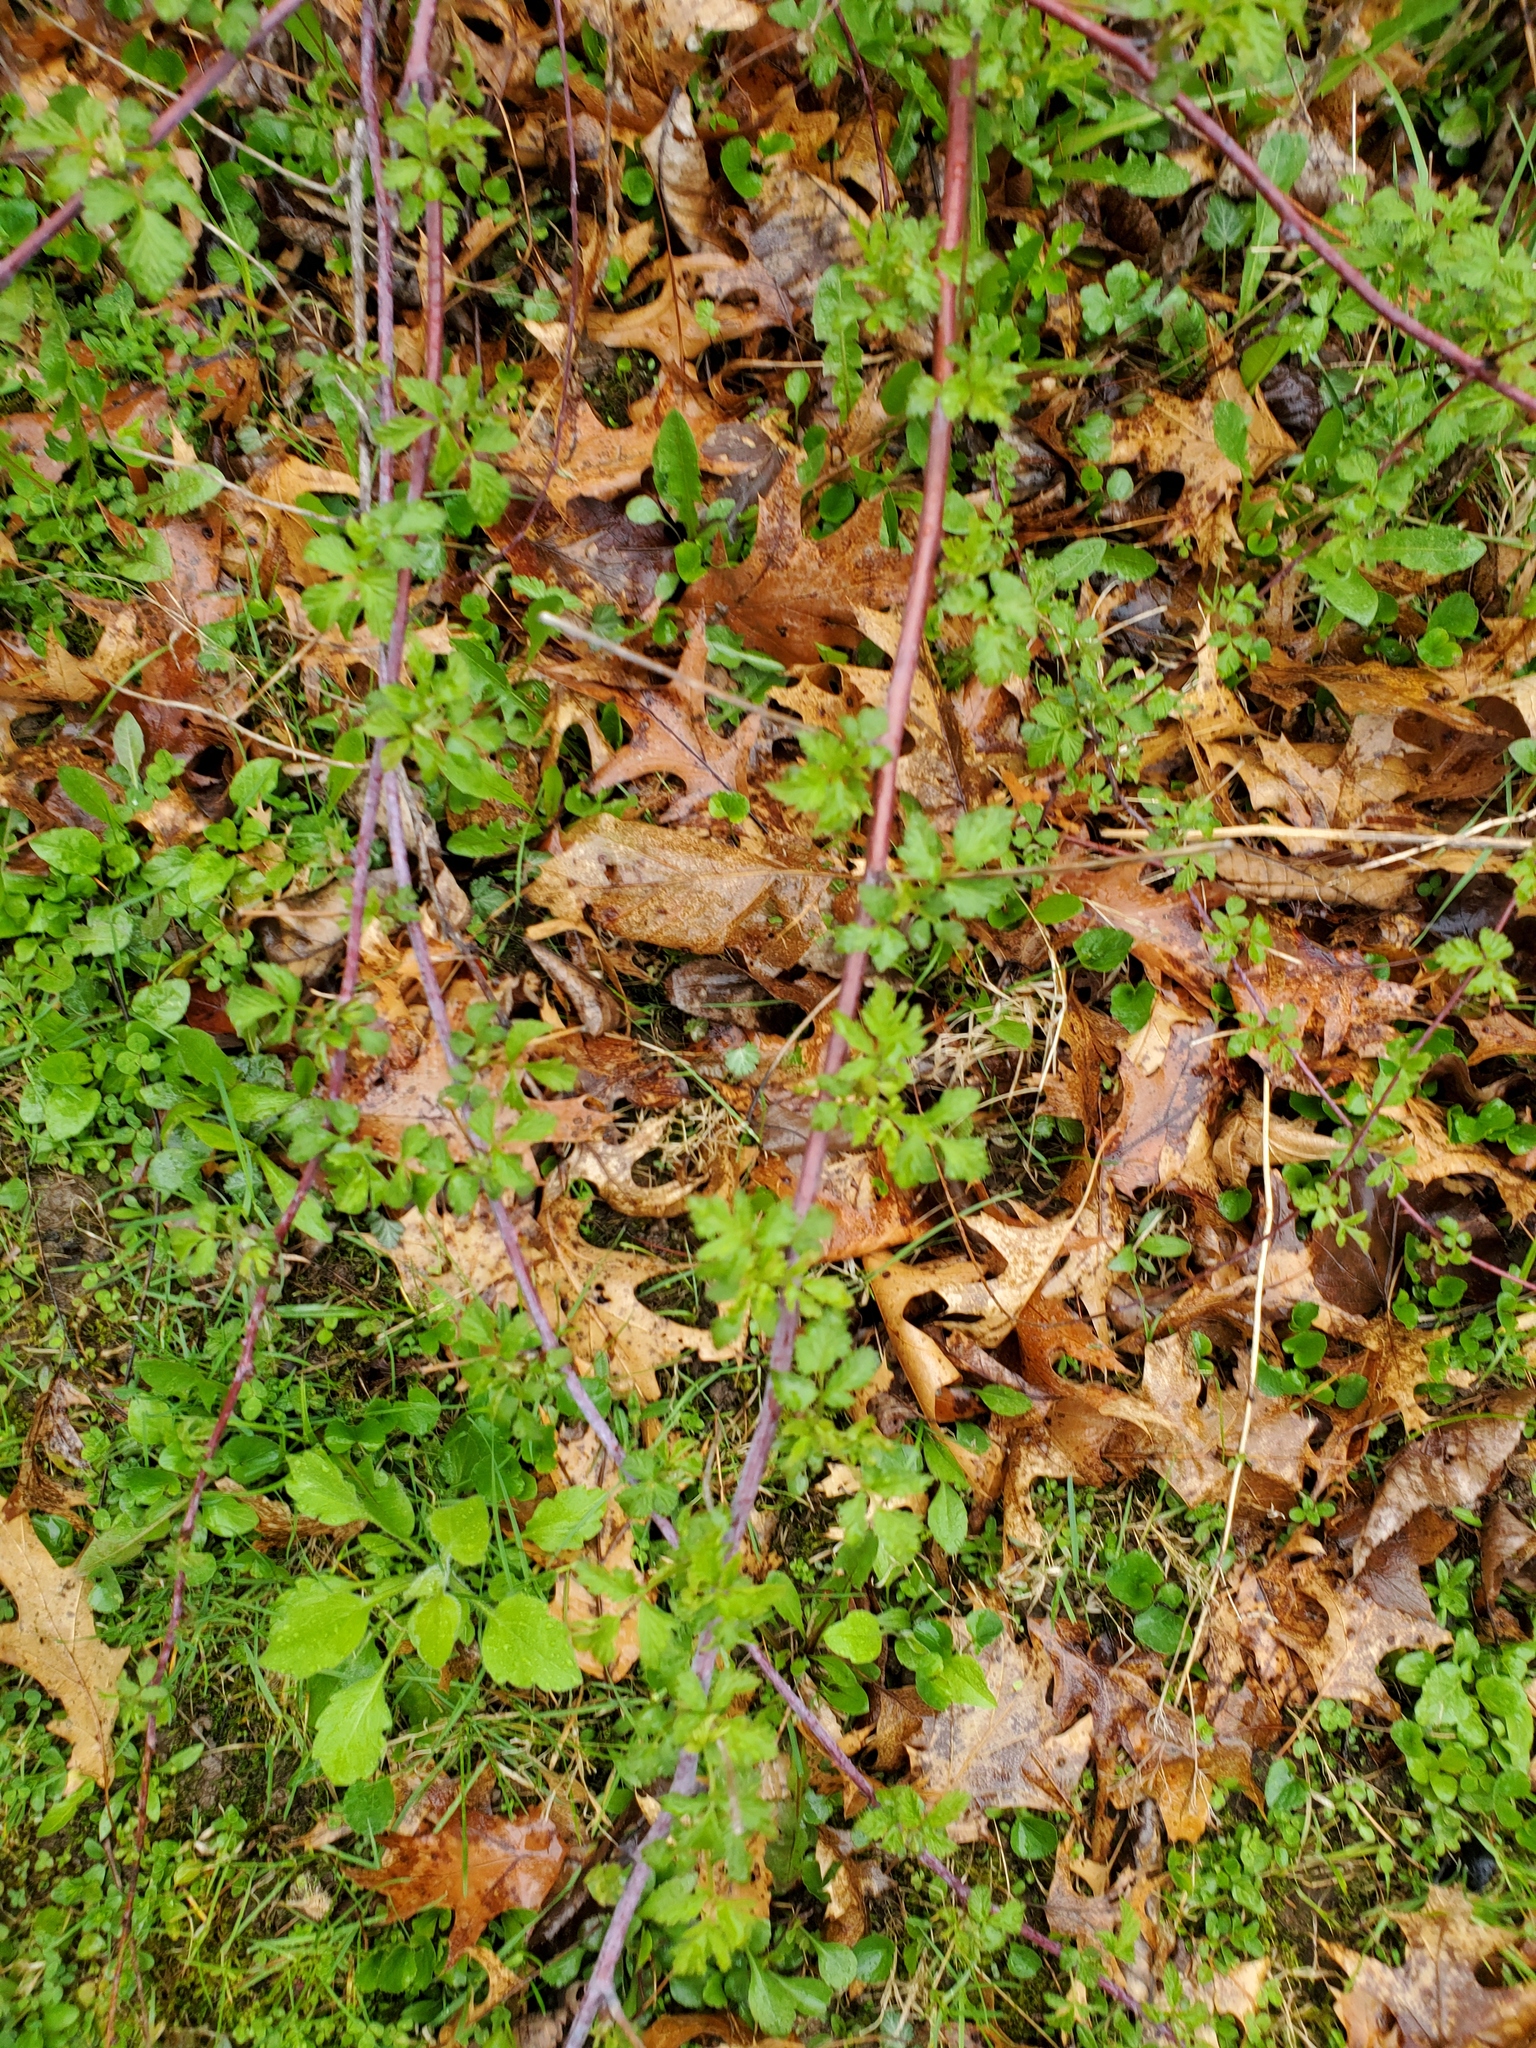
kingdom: Plantae
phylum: Tracheophyta
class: Magnoliopsida
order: Rosales
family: Rosaceae
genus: Rubus
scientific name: Rubus occidentalis
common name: Black raspberry
